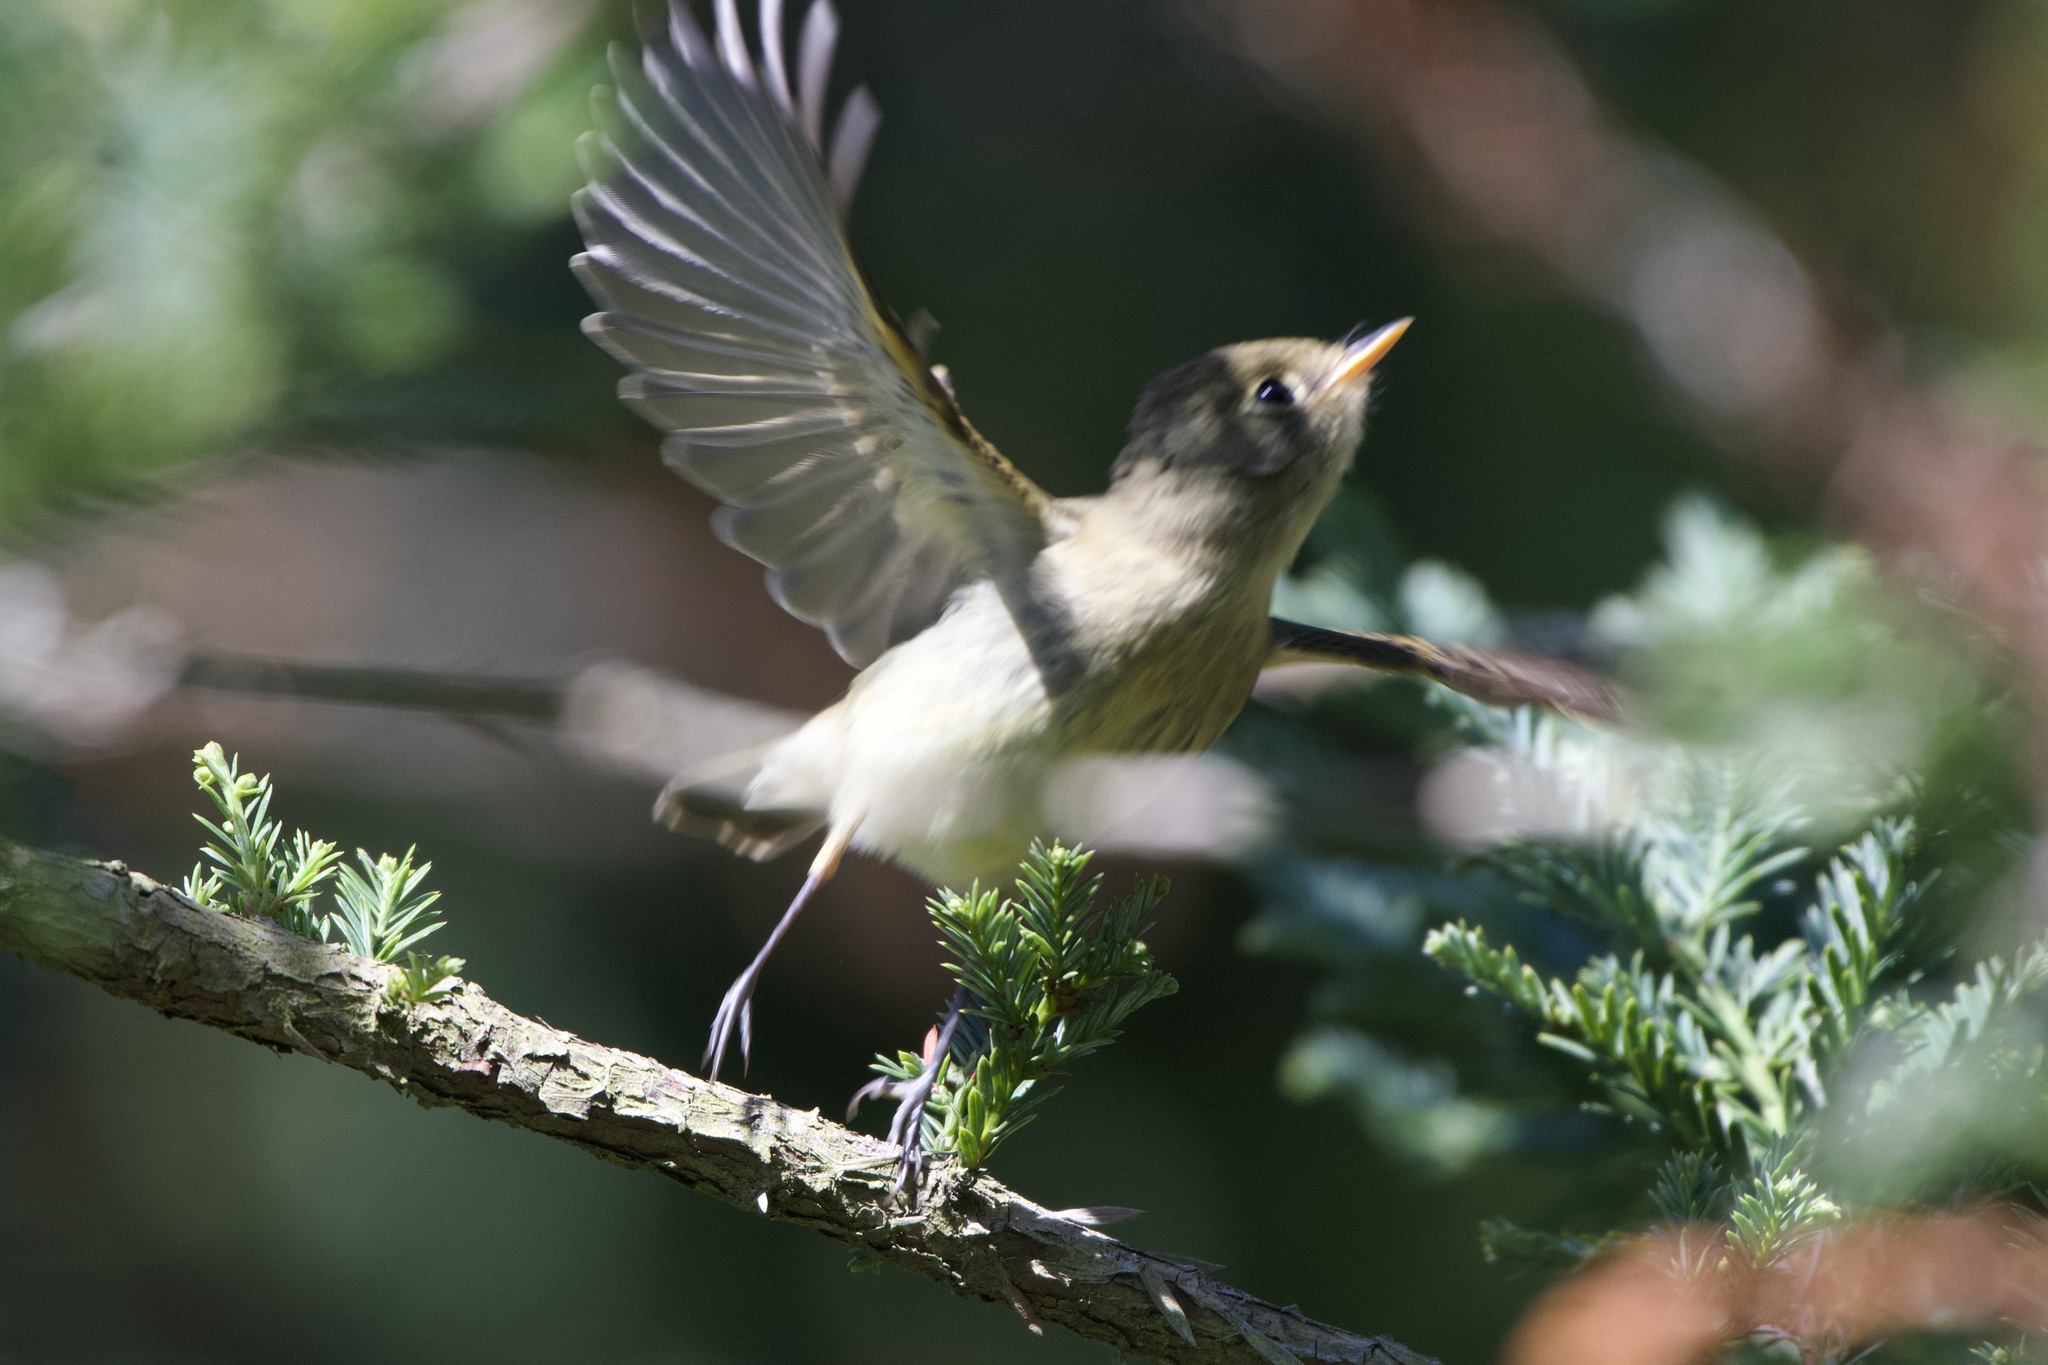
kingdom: Animalia
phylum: Chordata
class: Aves
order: Passeriformes
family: Tyrannidae
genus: Empidonax
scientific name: Empidonax difficilis
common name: Pacific-slope flycatcher
